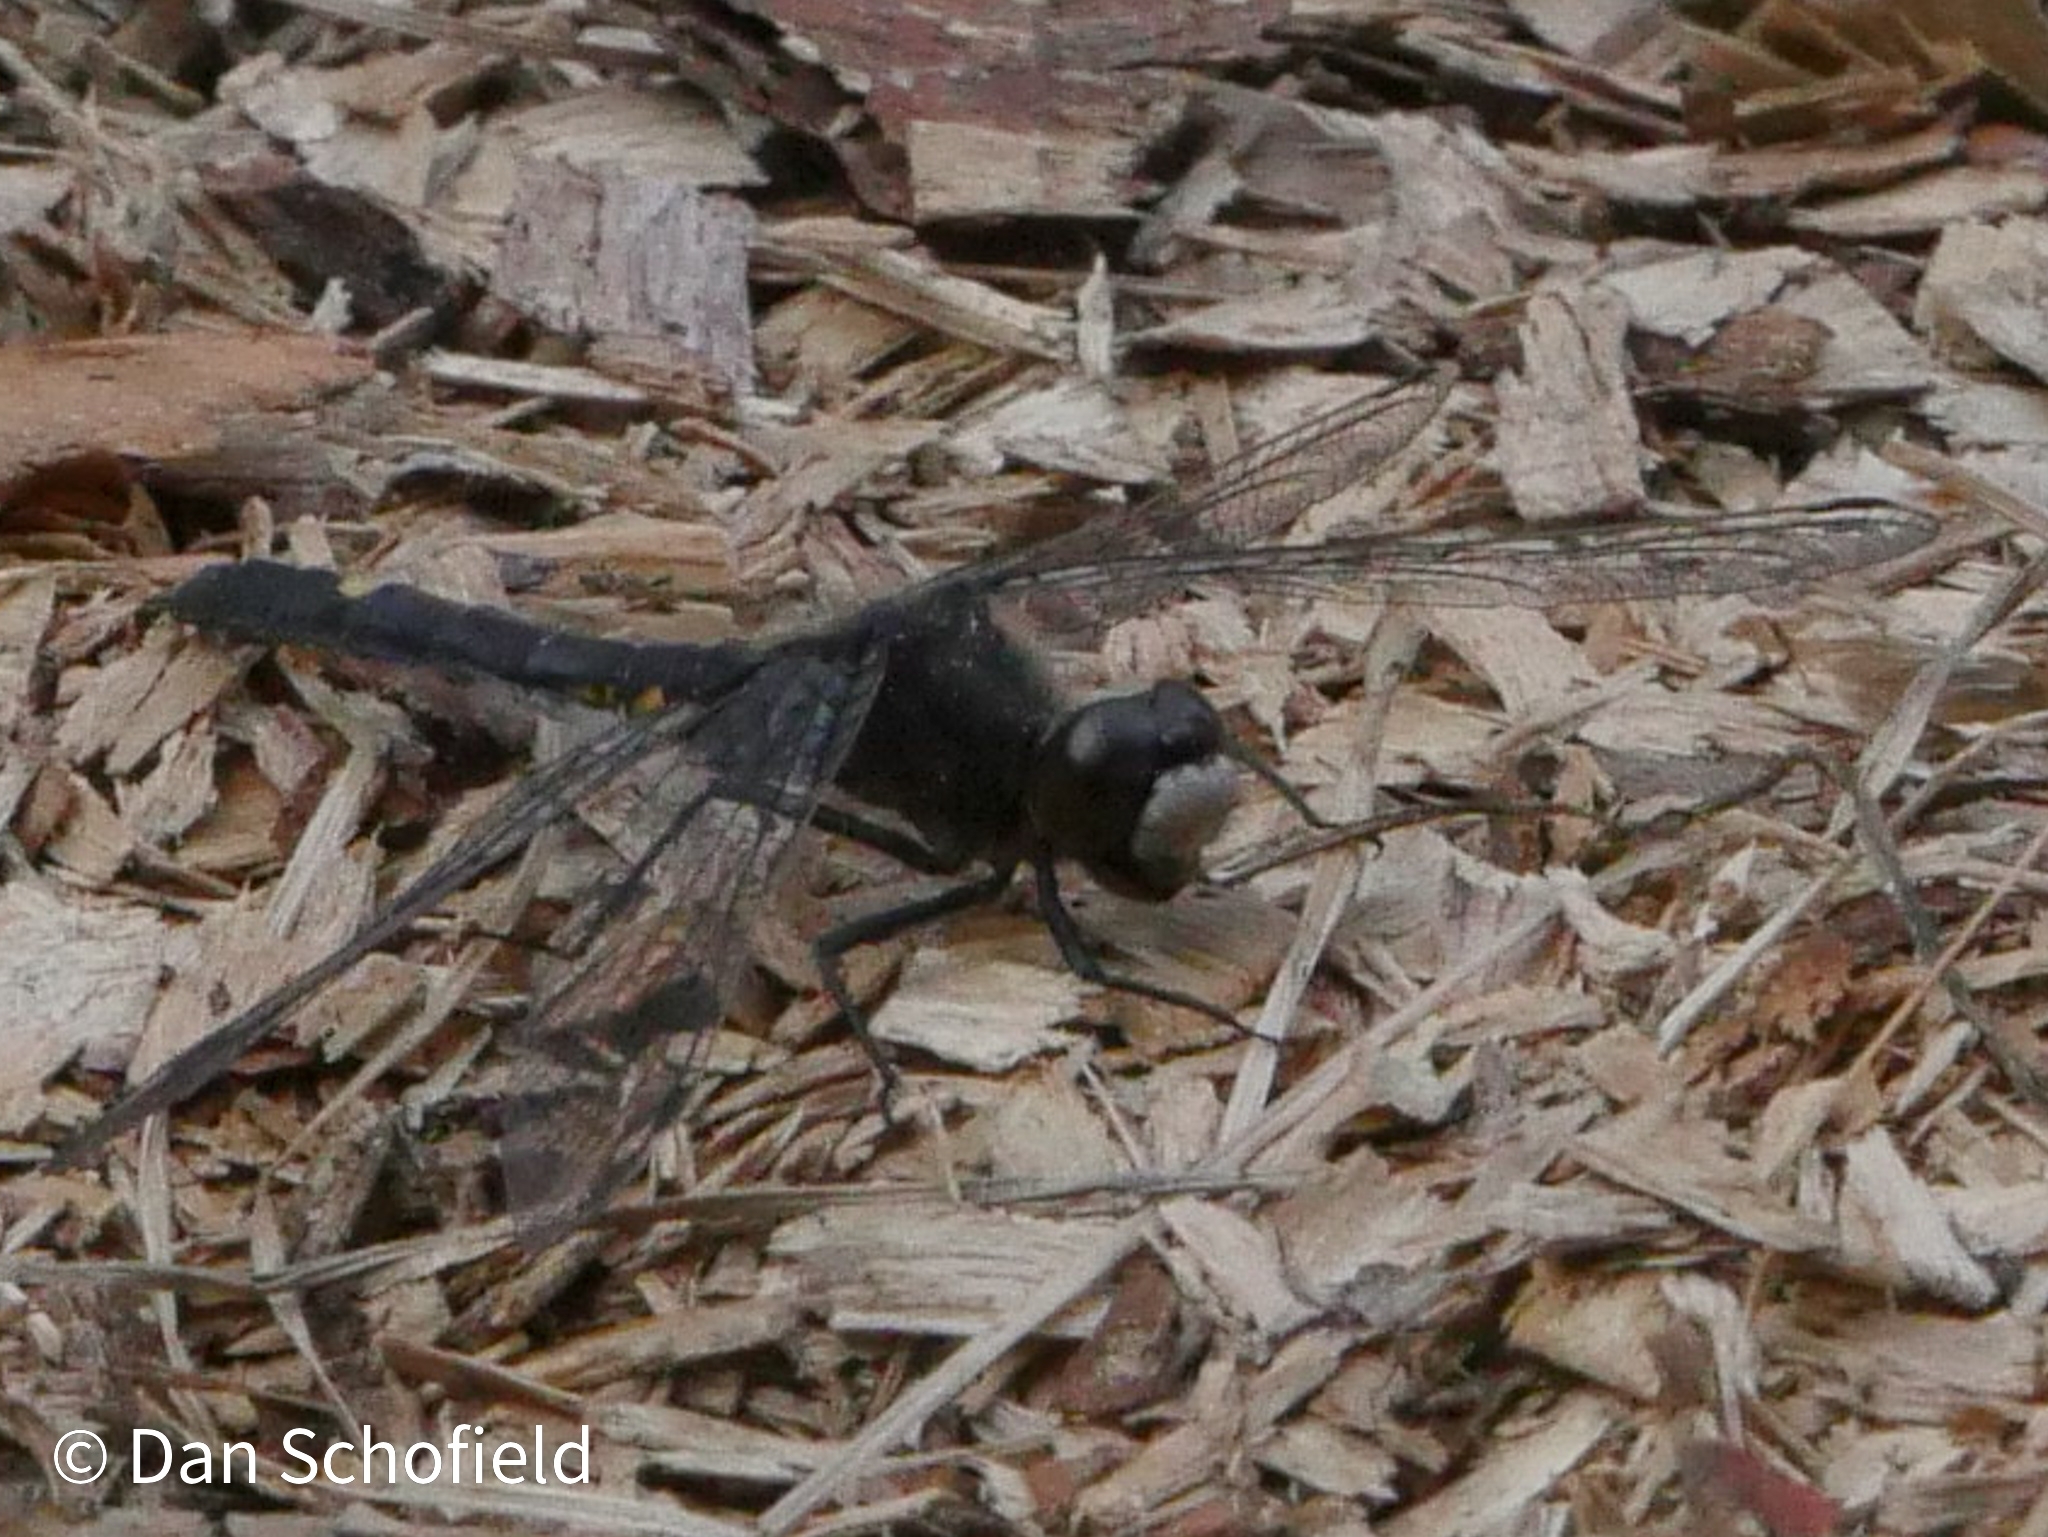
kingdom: Animalia
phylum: Arthropoda
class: Insecta
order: Odonata
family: Libellulidae
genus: Leucorrhinia
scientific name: Leucorrhinia intacta
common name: Dot-tailed whiteface
